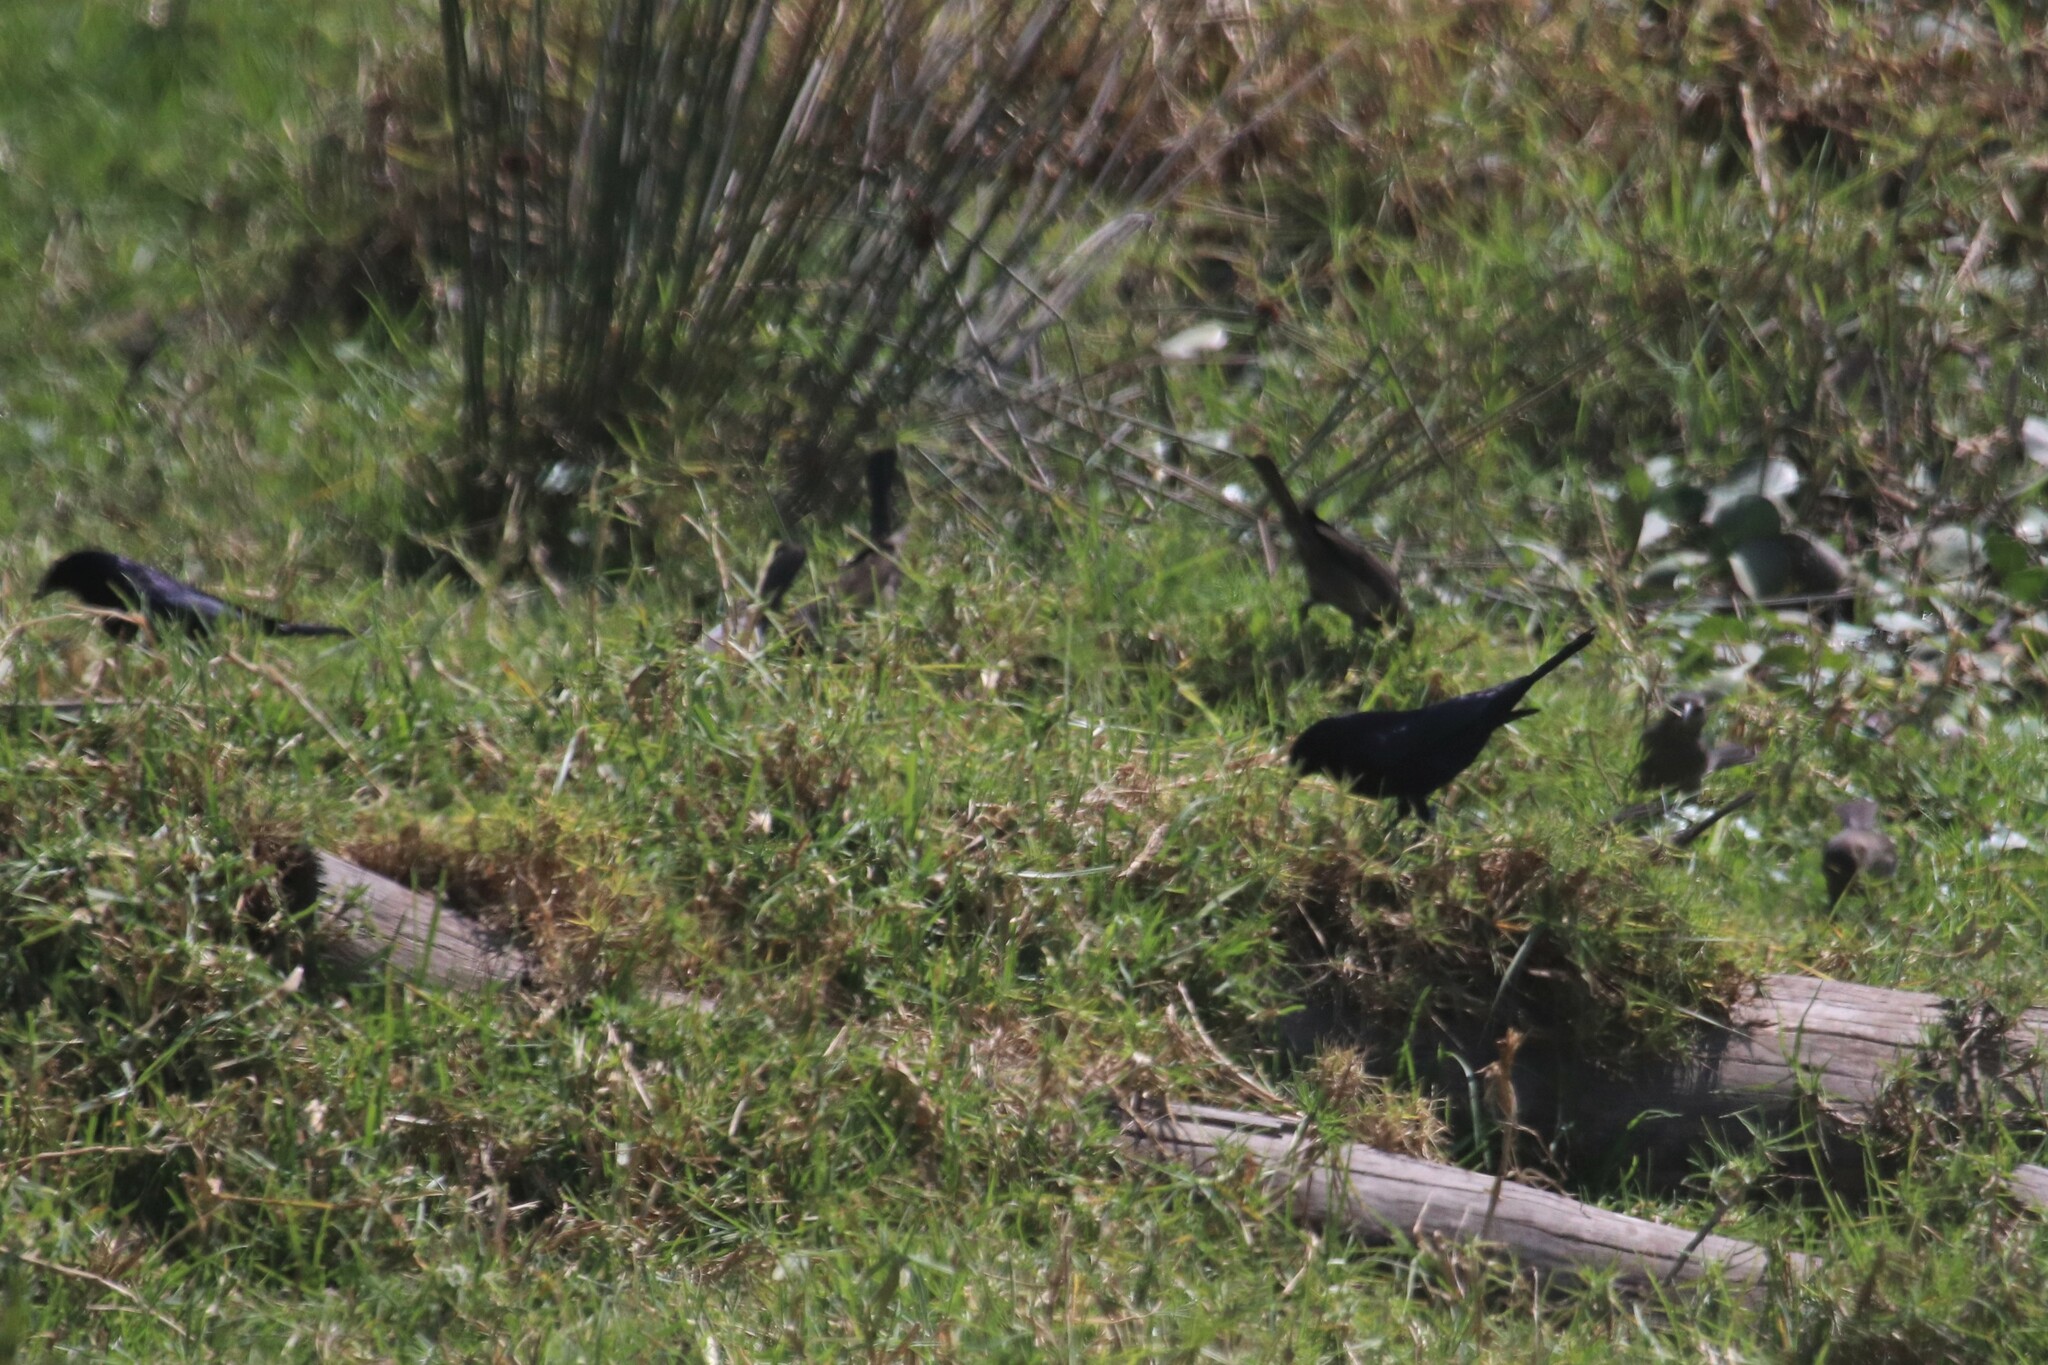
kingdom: Animalia
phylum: Chordata
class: Aves
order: Passeriformes
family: Icteridae
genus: Molothrus
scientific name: Molothrus bonariensis
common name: Shiny cowbird
